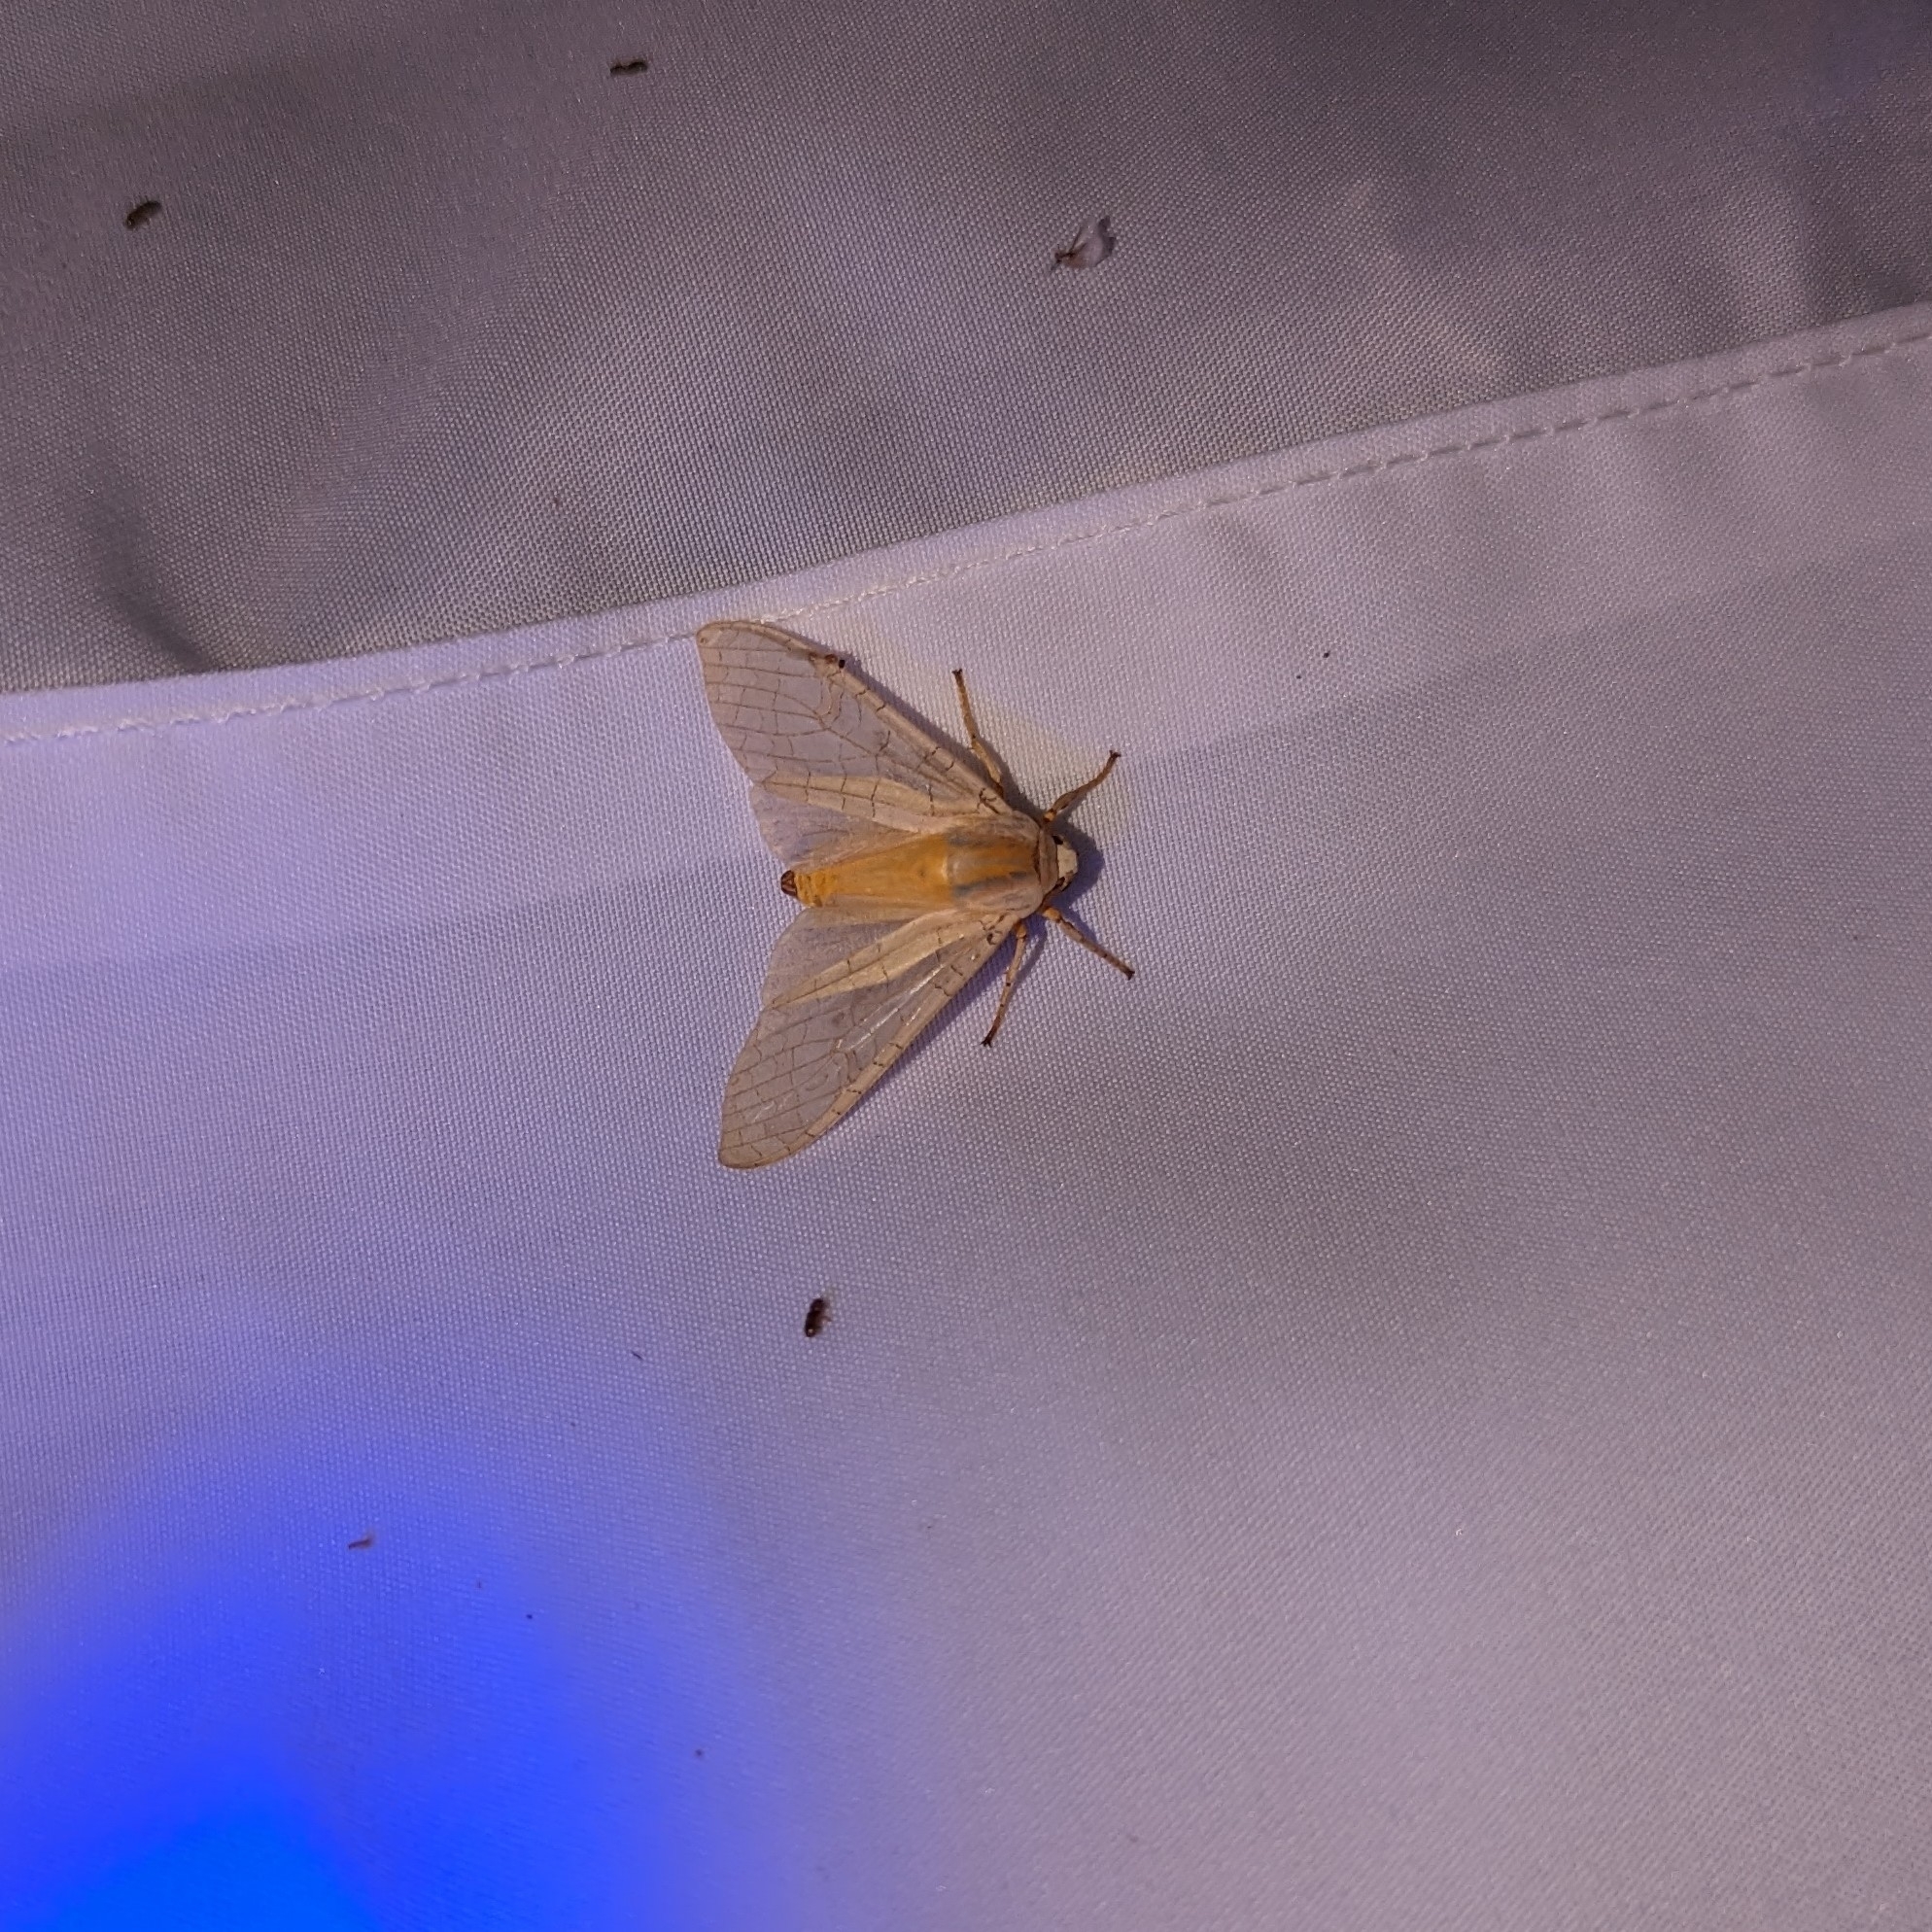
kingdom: Animalia
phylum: Arthropoda
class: Insecta
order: Lepidoptera
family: Erebidae
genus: Halysidota
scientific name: Halysidota
